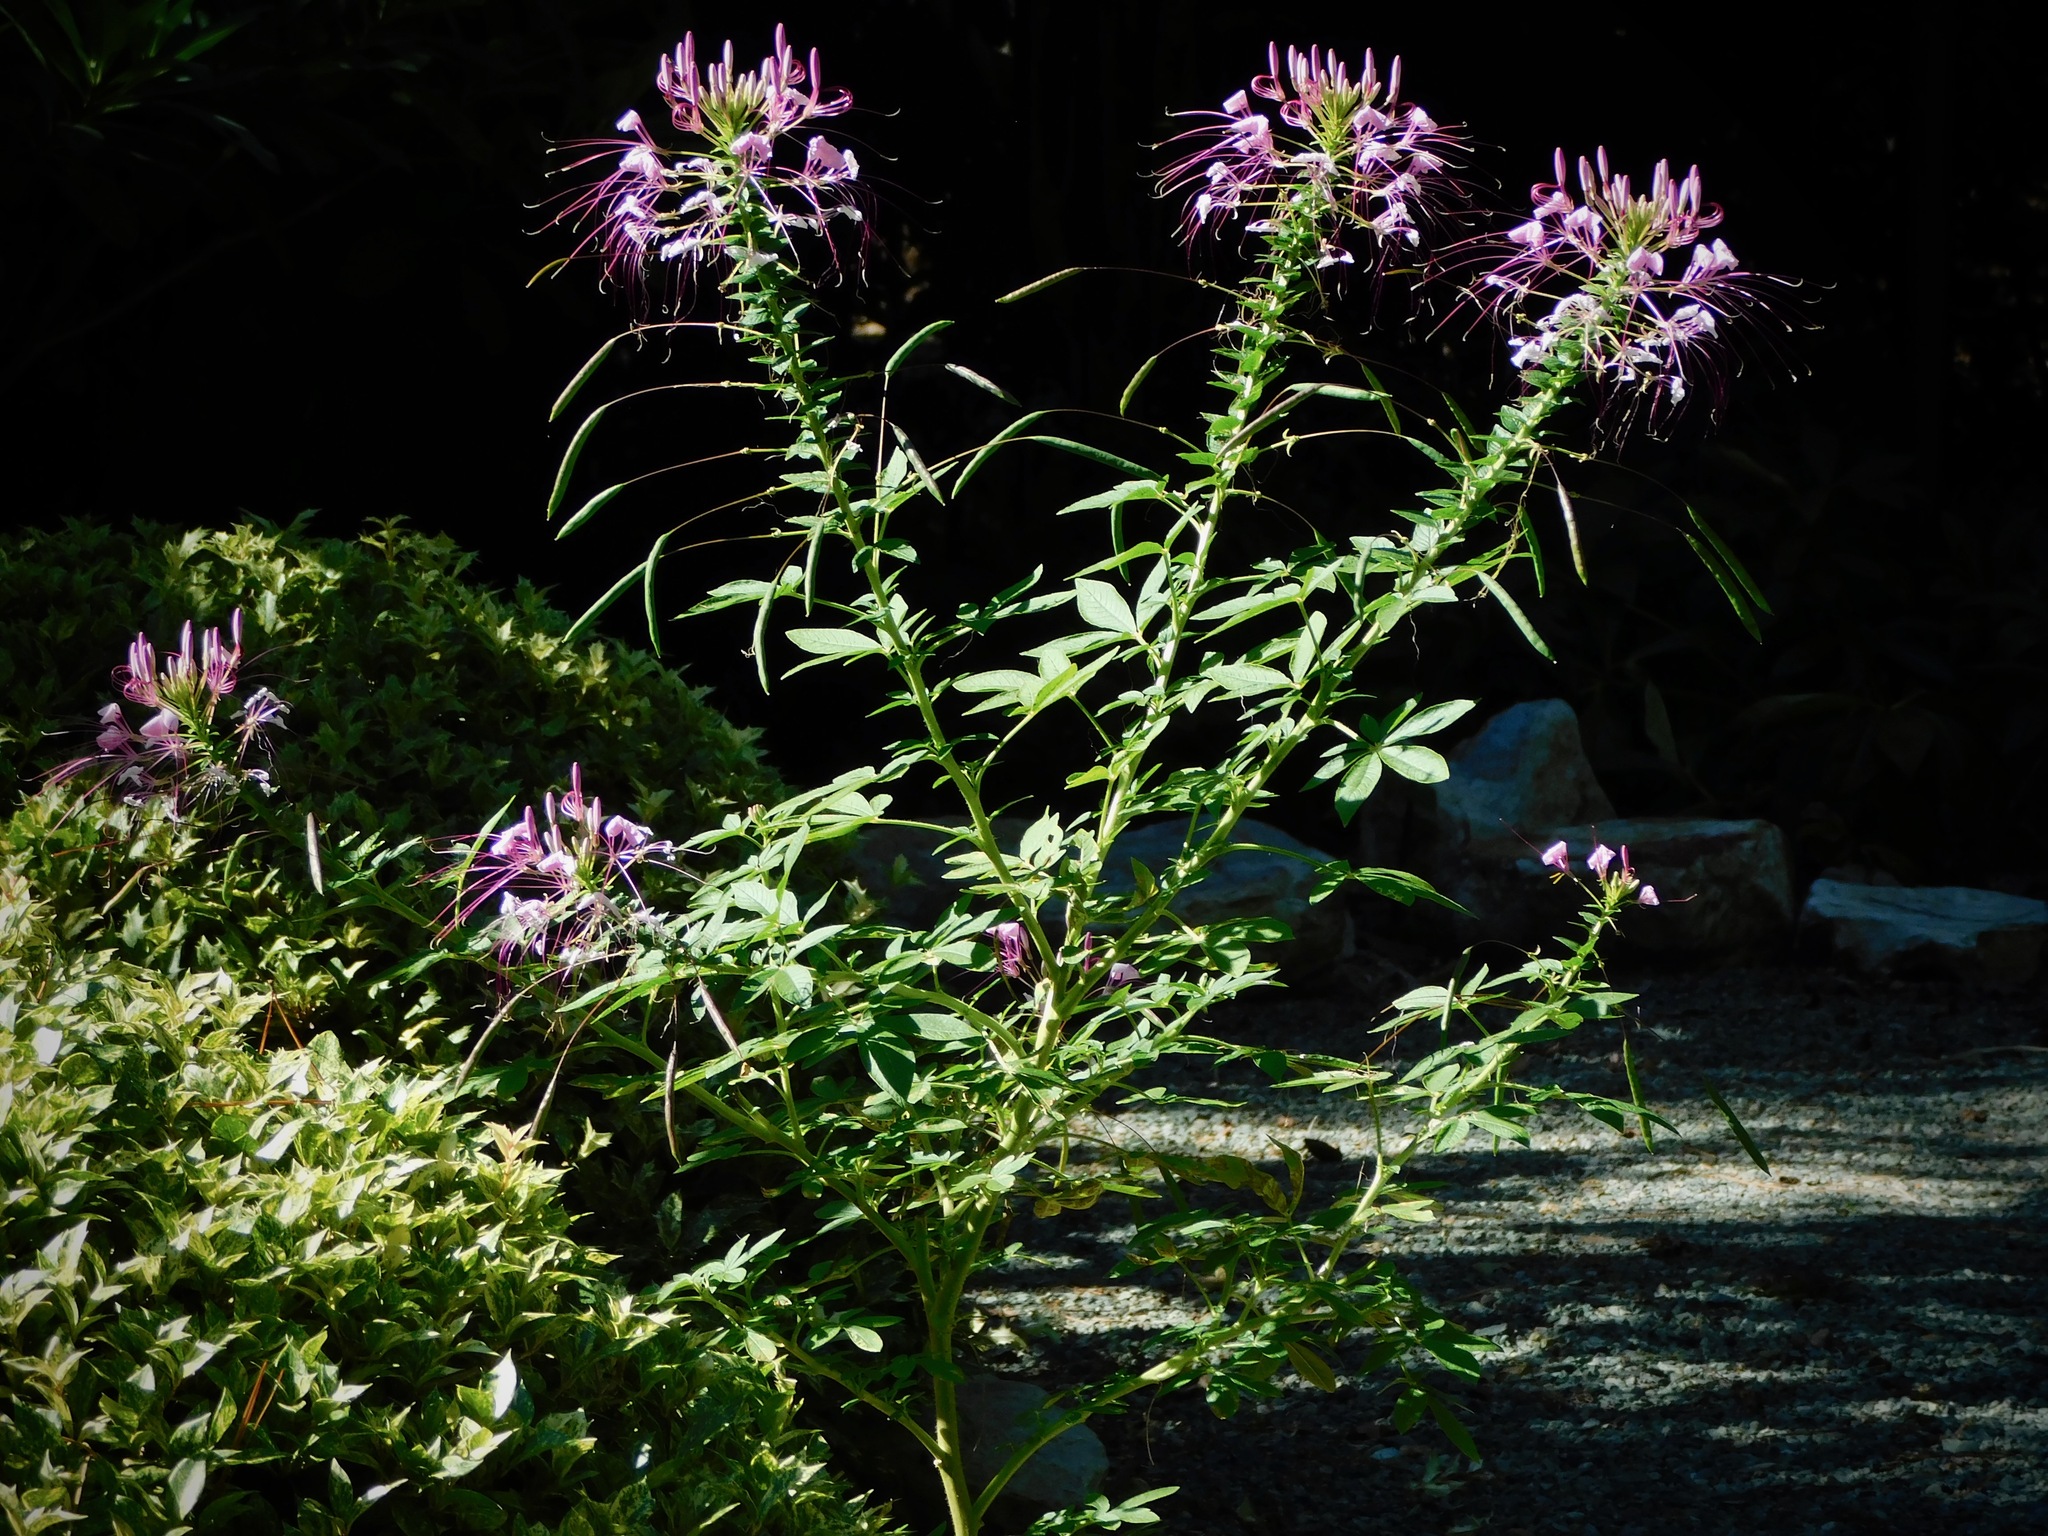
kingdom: Plantae
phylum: Tracheophyta
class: Magnoliopsida
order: Brassicales
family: Cleomaceae
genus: Tarenaya
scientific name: Tarenaya houtteana
